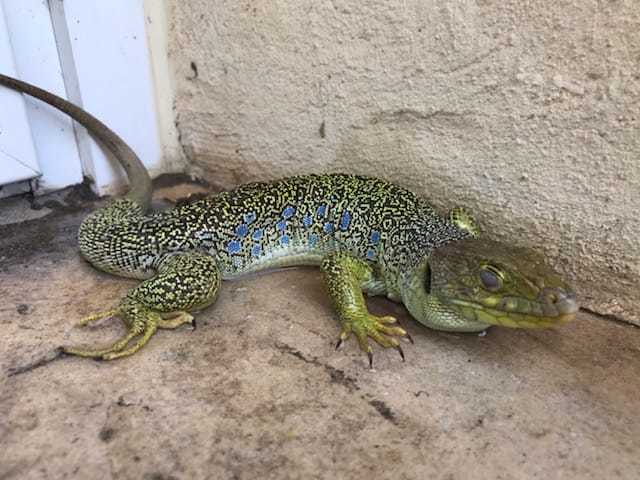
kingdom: Animalia
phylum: Chordata
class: Squamata
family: Lacertidae
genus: Timon
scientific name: Timon lepidus
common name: Ocellated lizard
